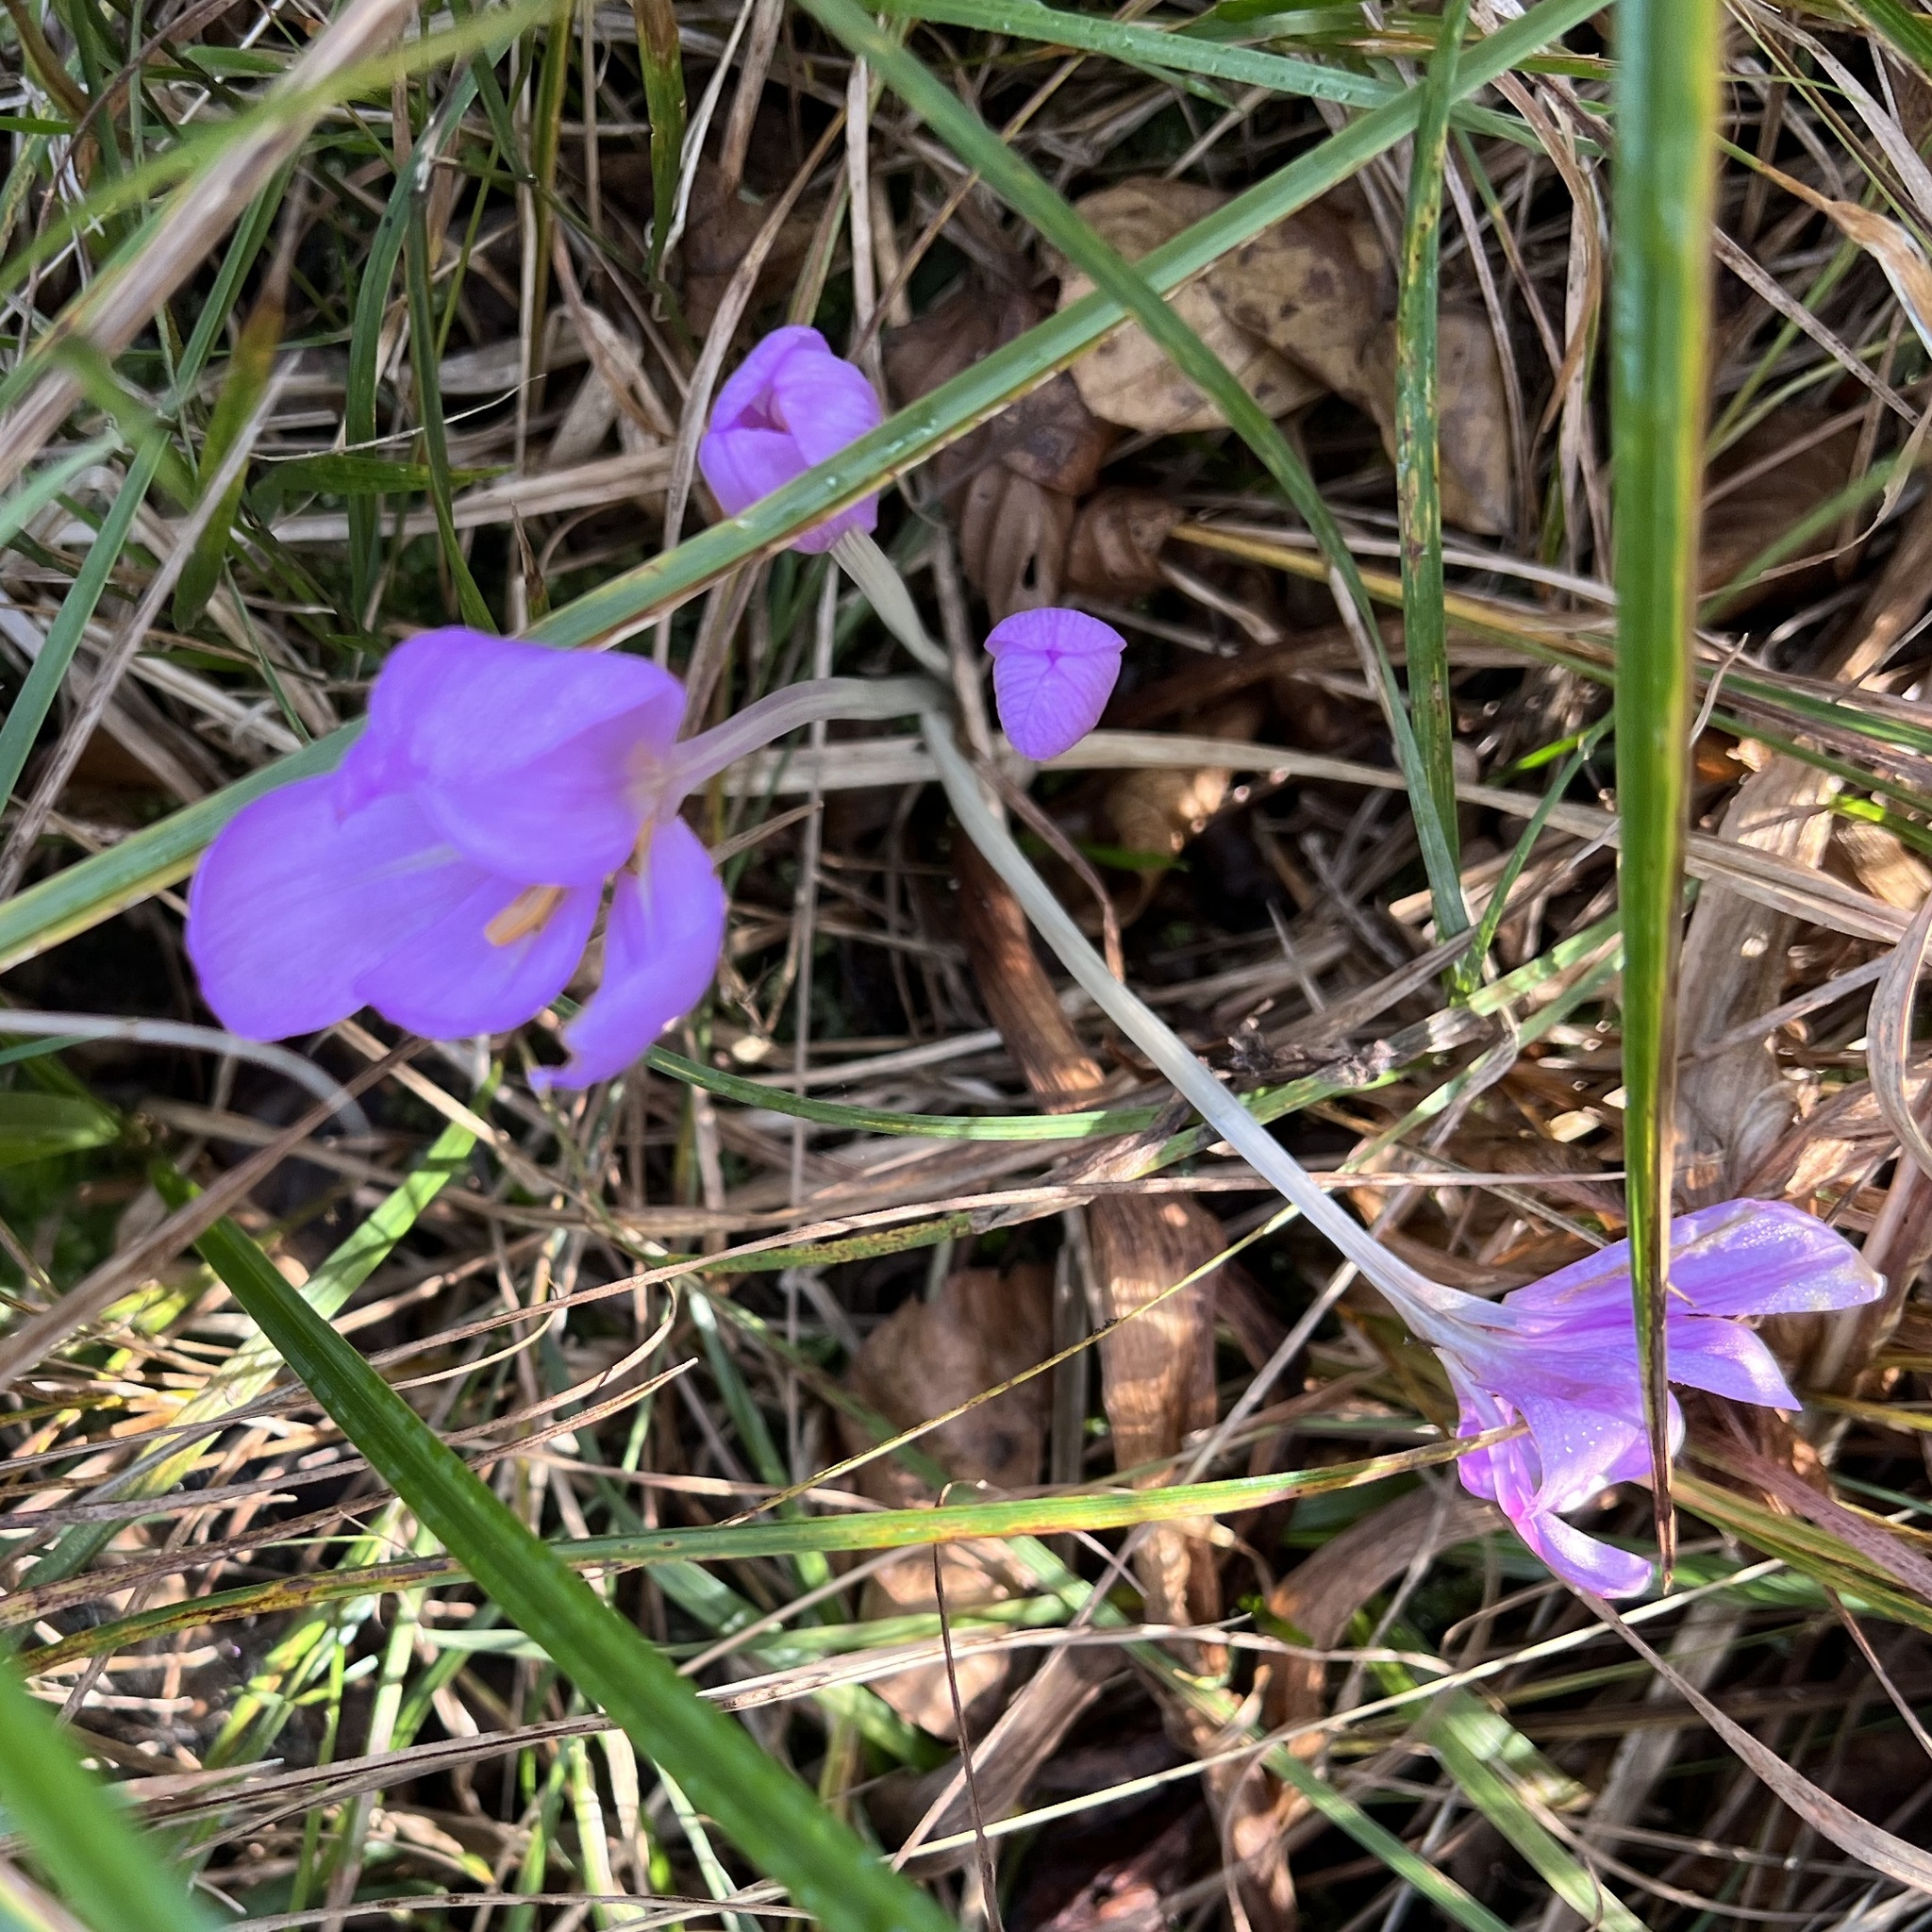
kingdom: Plantae
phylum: Tracheophyta
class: Liliopsida
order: Liliales
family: Colchicaceae
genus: Colchicum
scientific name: Colchicum autumnale
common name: Autumn crocus
